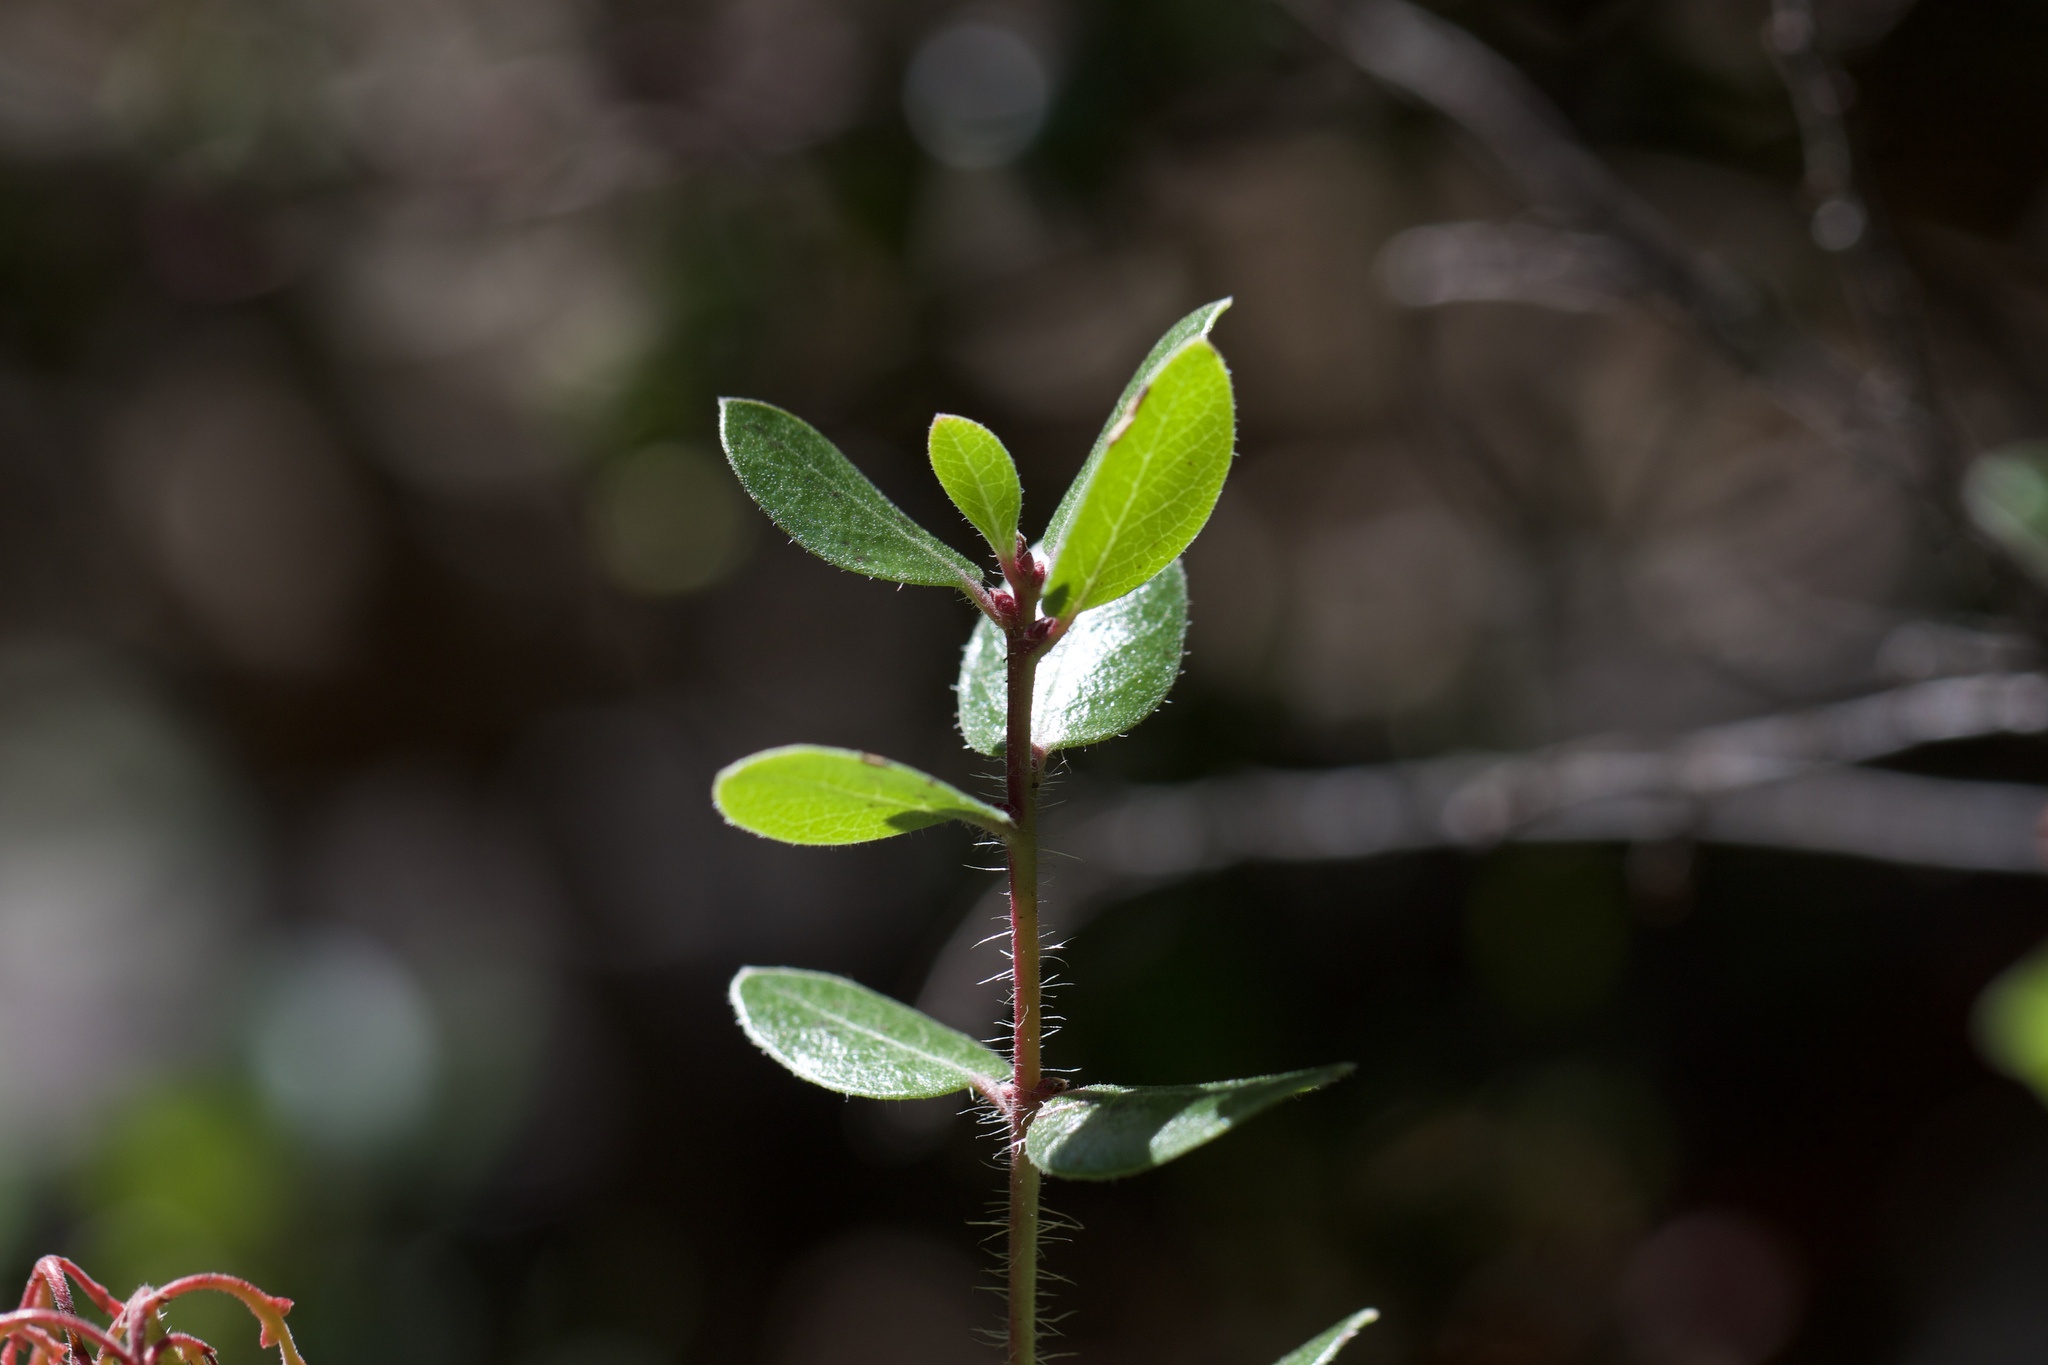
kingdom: Plantae
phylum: Tracheophyta
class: Magnoliopsida
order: Ericales
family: Ericaceae
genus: Arctostaphylos
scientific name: Arctostaphylos nummularia
